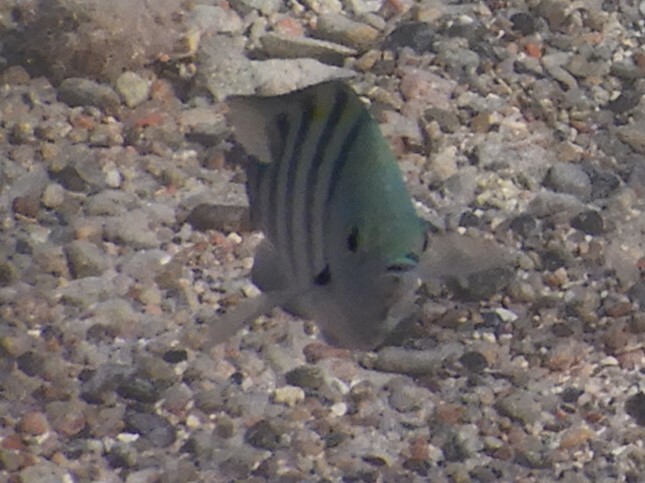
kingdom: Animalia
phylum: Chordata
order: Perciformes
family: Pomacentridae
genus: Abudefduf
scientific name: Abudefduf sordidus
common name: Blackspot sergeant
